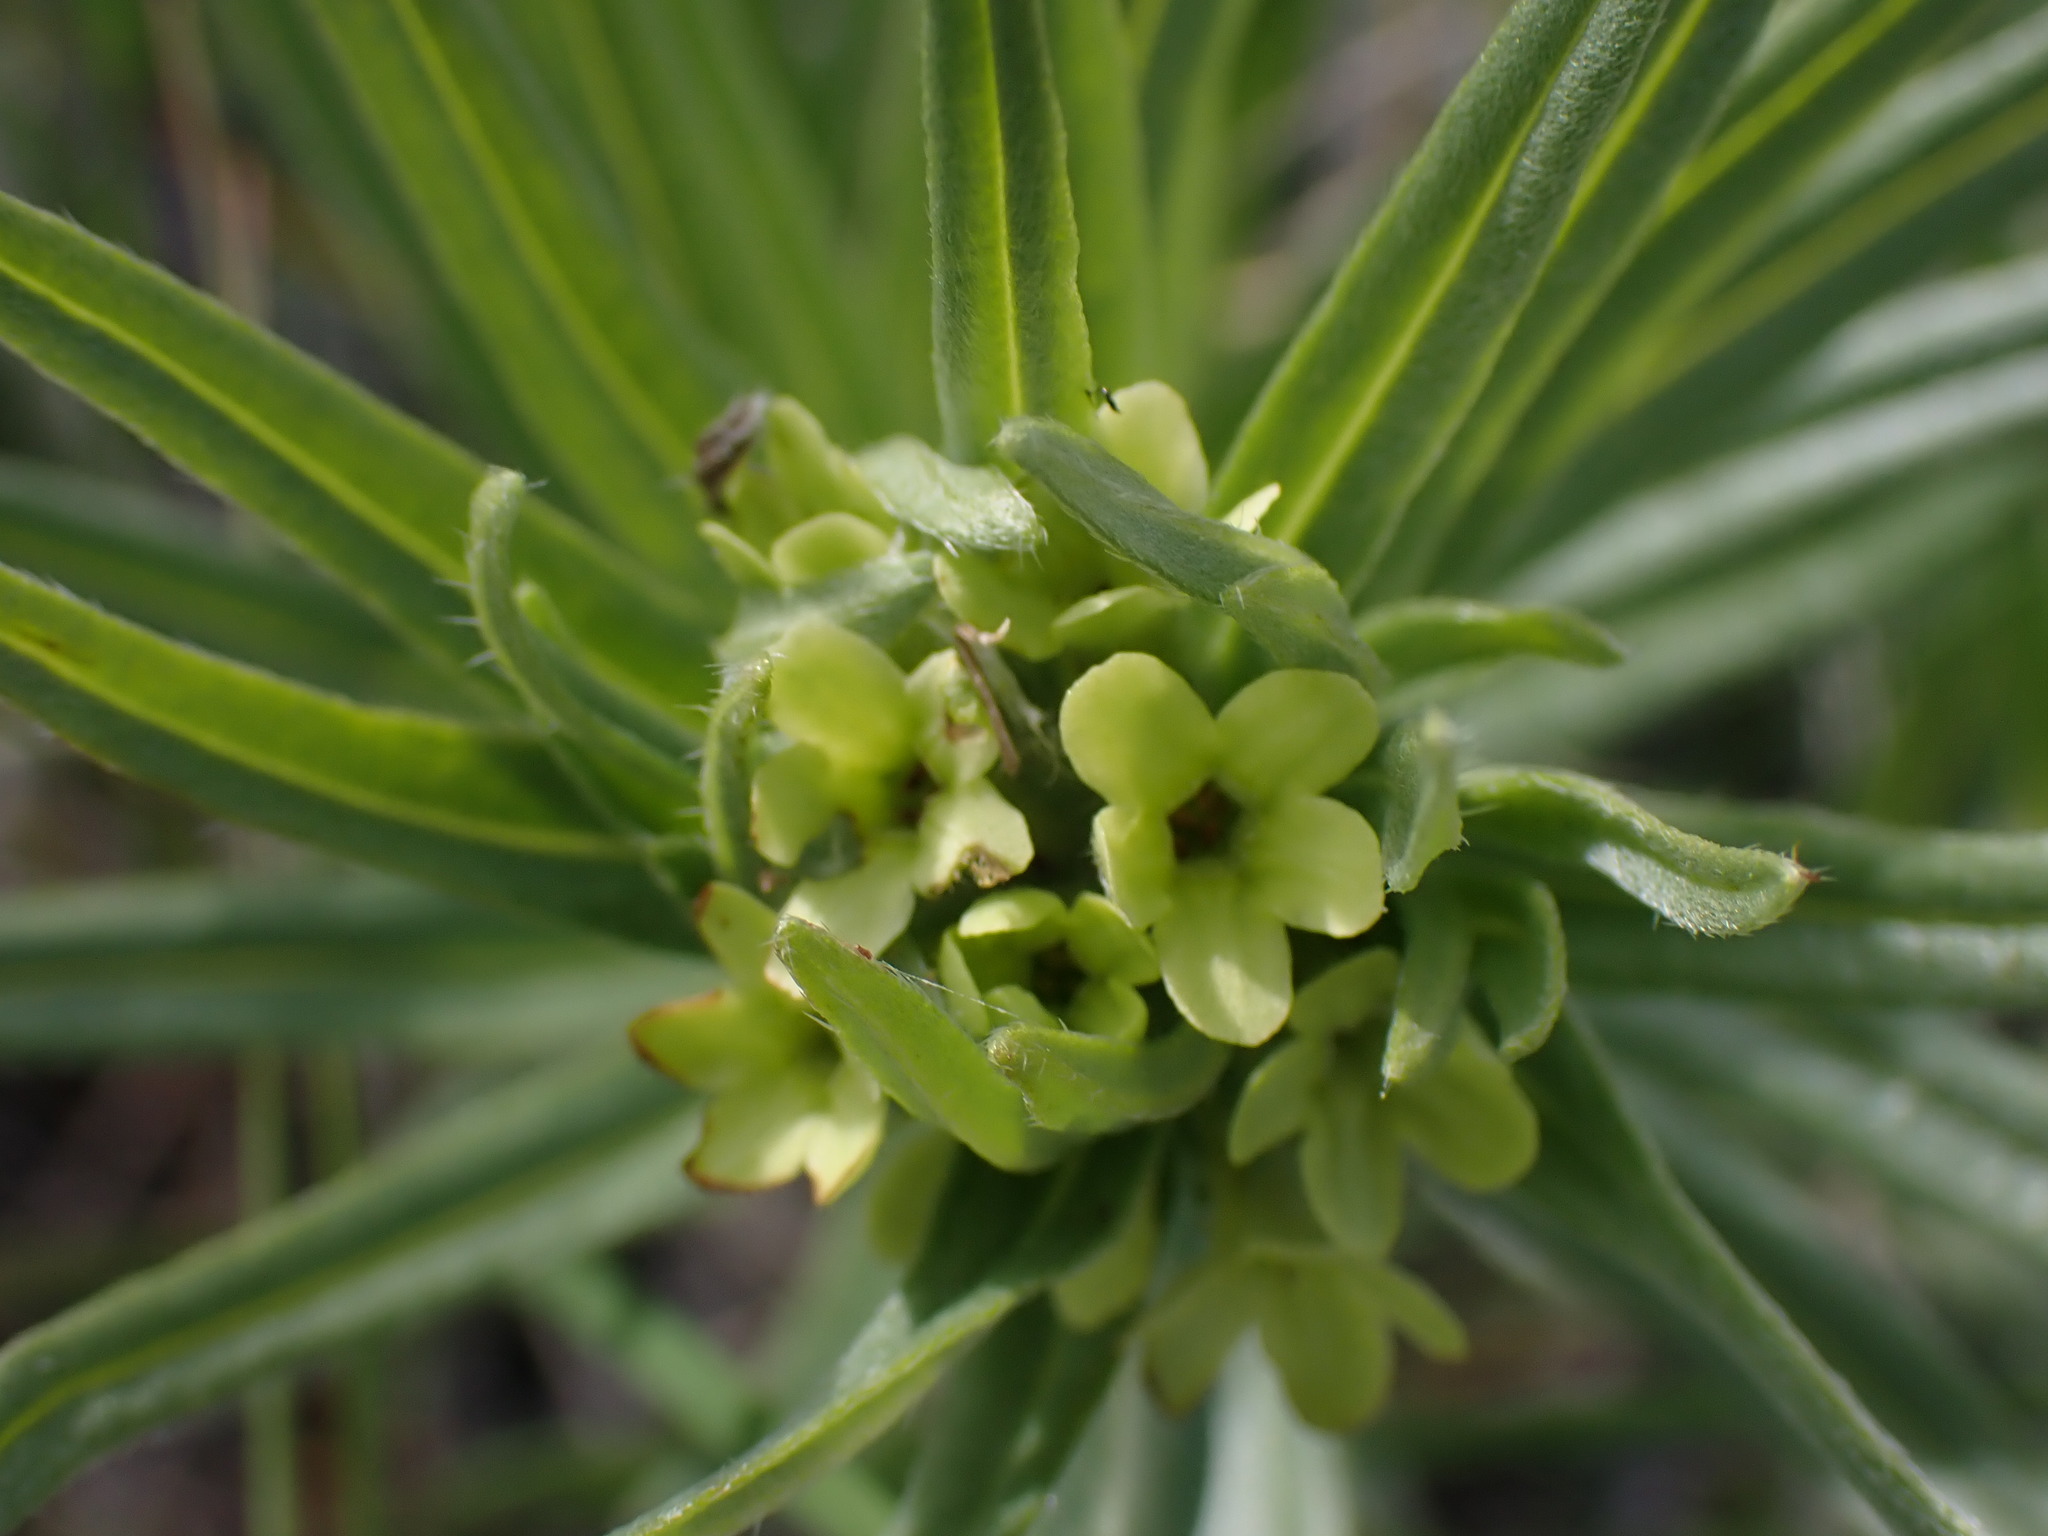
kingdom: Plantae
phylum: Tracheophyta
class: Magnoliopsida
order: Boraginales
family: Boraginaceae
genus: Lithospermum
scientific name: Lithospermum ruderale
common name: Western gromwell
